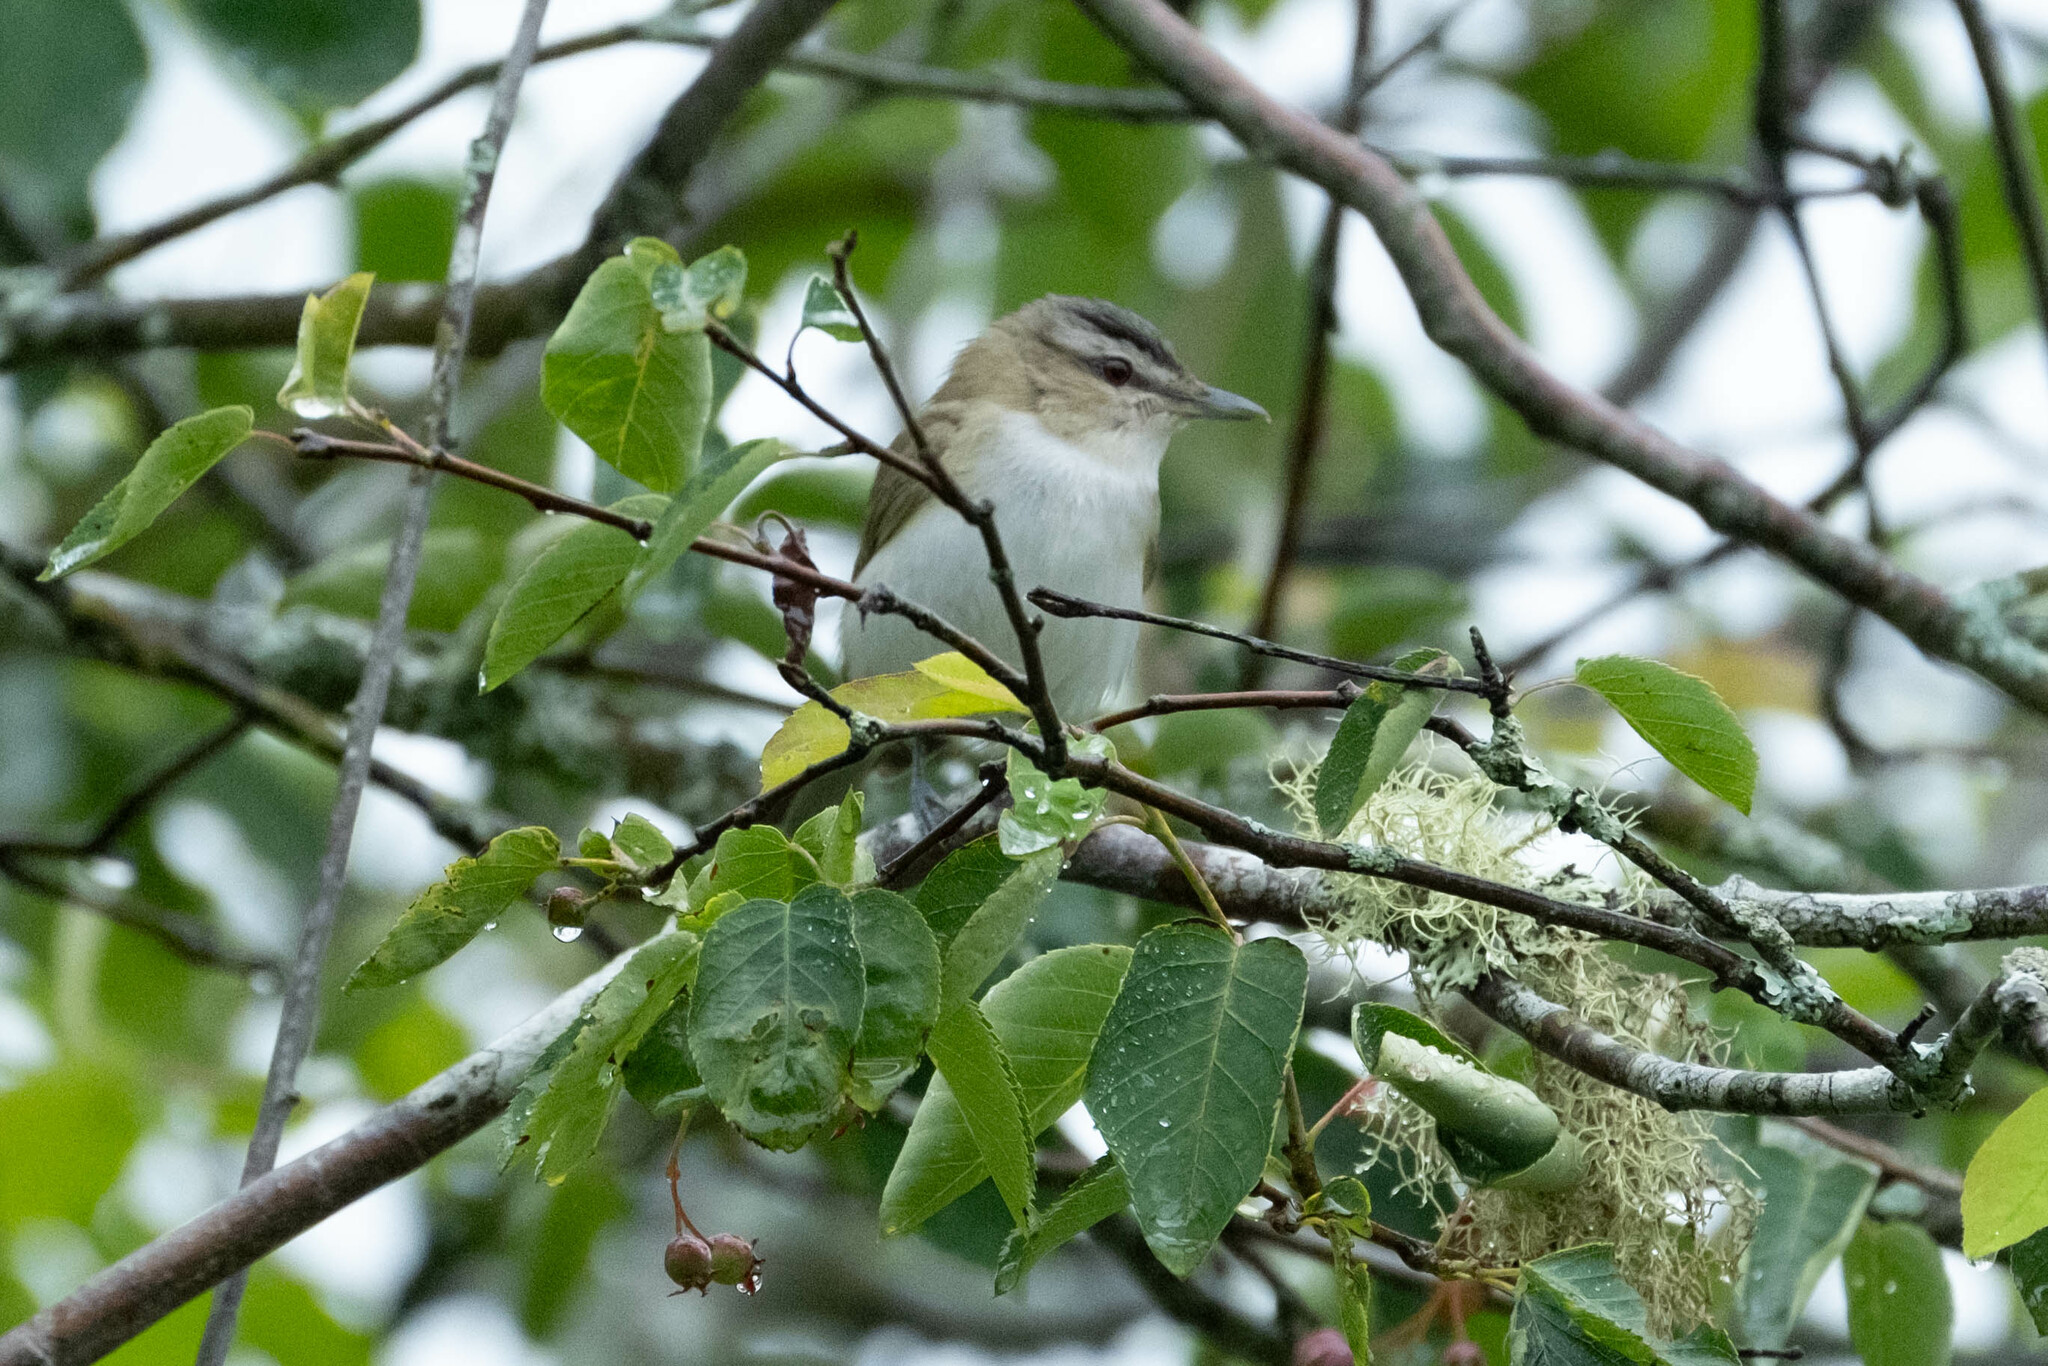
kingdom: Animalia
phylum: Chordata
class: Aves
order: Passeriformes
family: Vireonidae
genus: Vireo
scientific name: Vireo olivaceus
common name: Red-eyed vireo
